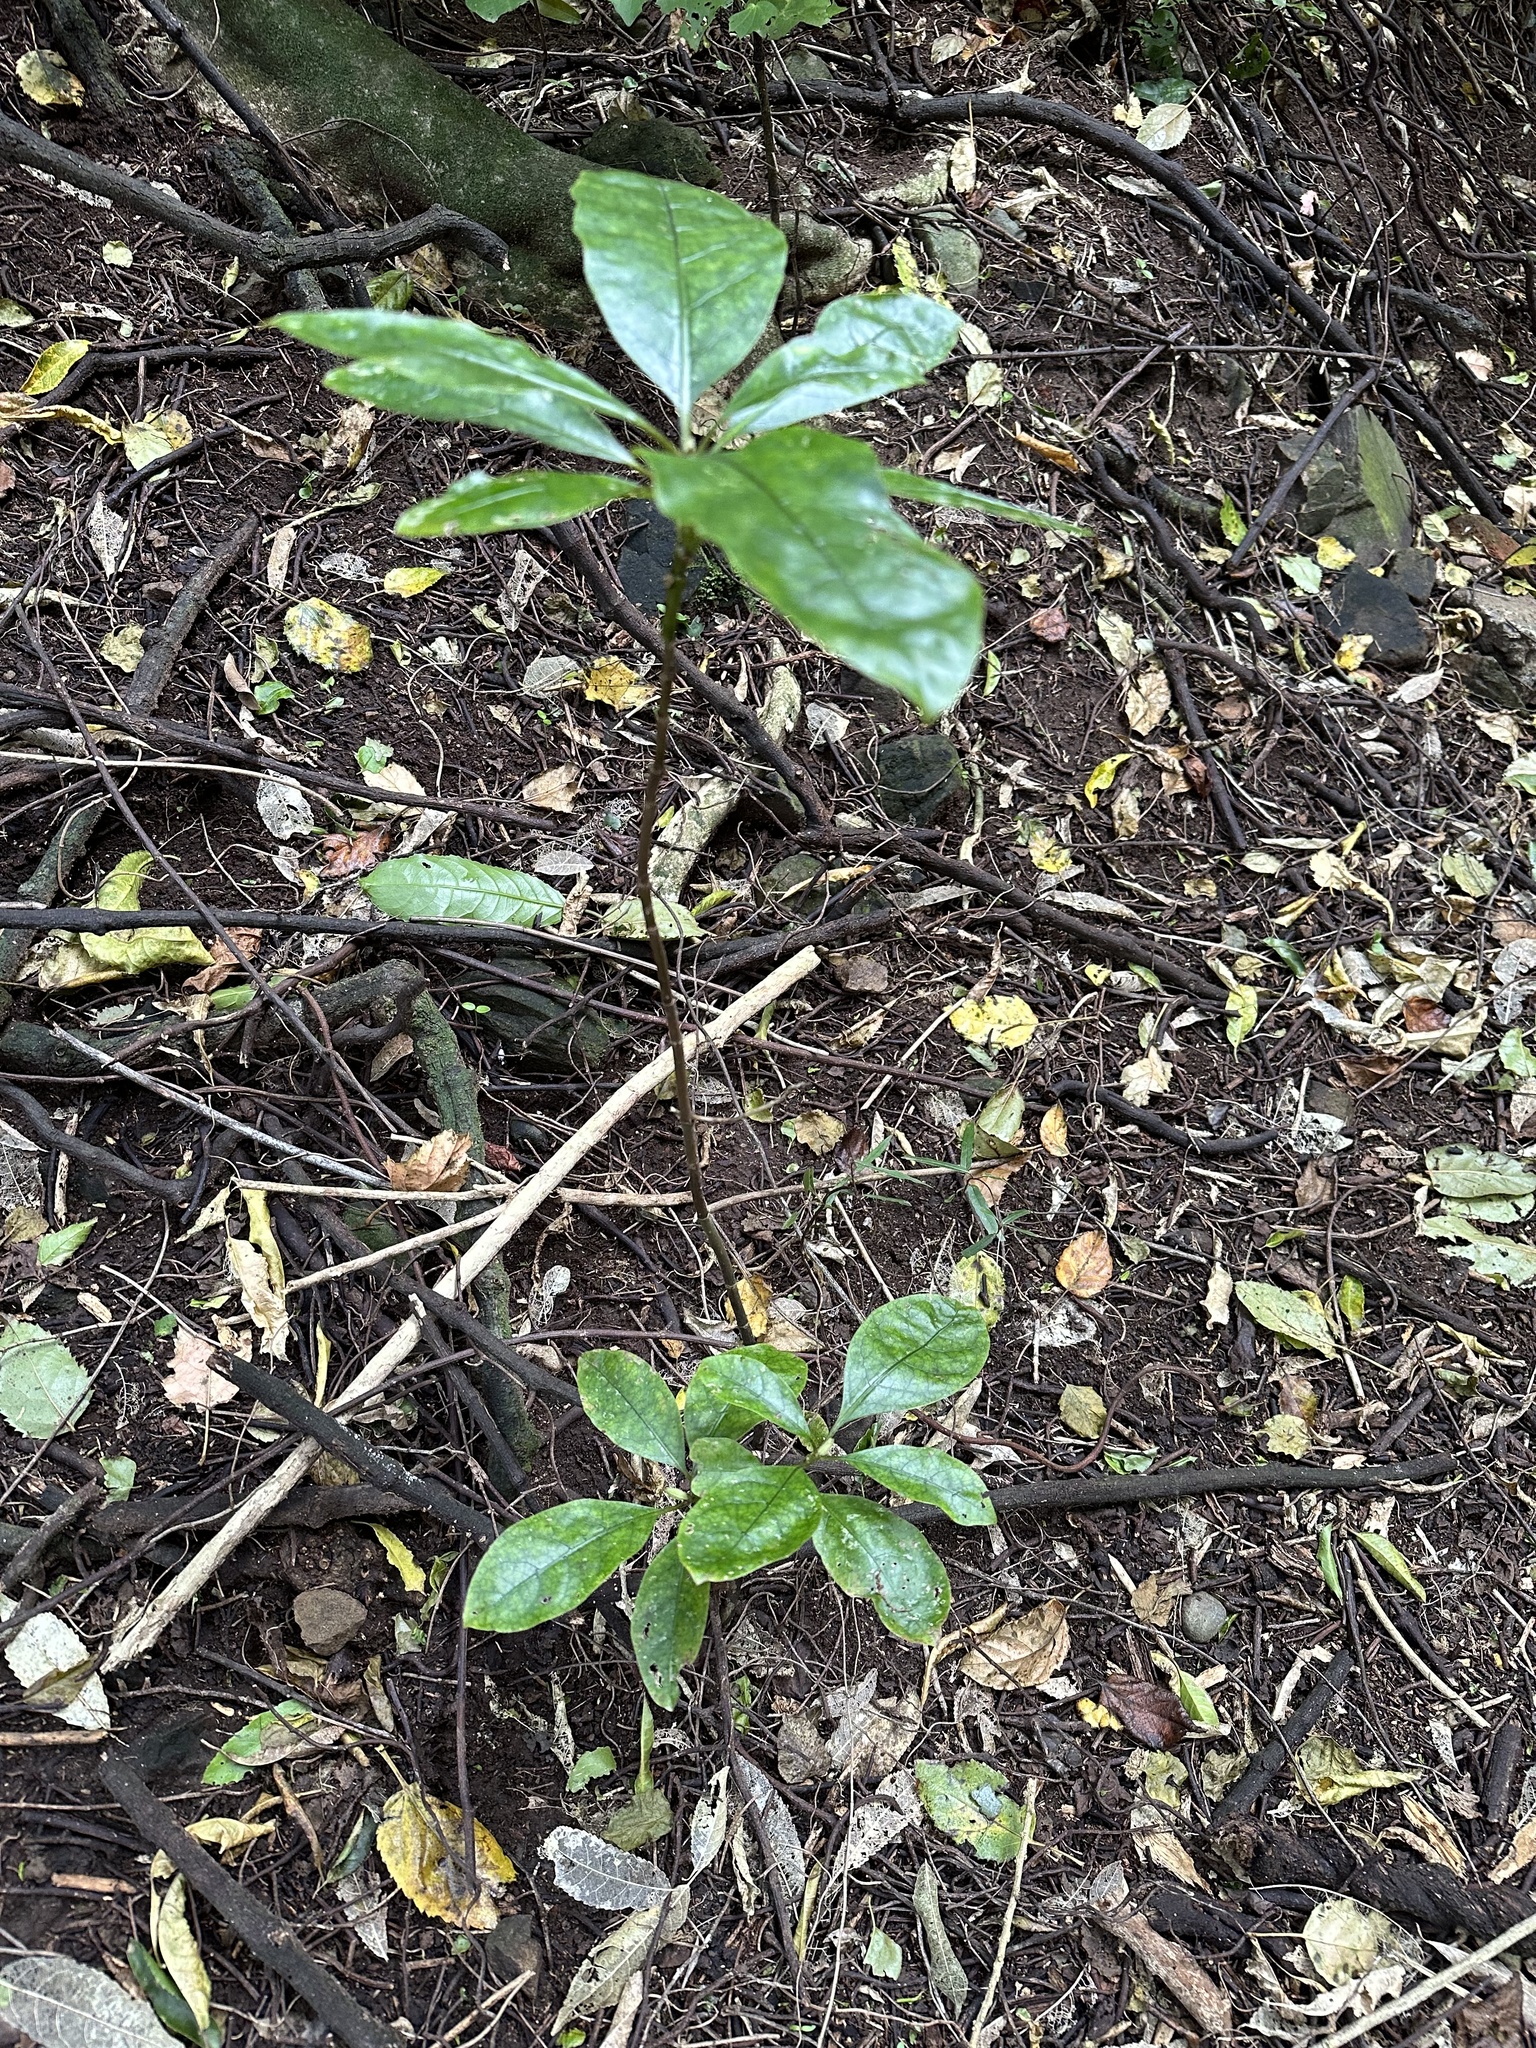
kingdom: Plantae
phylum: Tracheophyta
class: Magnoliopsida
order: Gentianales
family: Rubiaceae
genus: Coprosma
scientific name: Coprosma autumnalis
